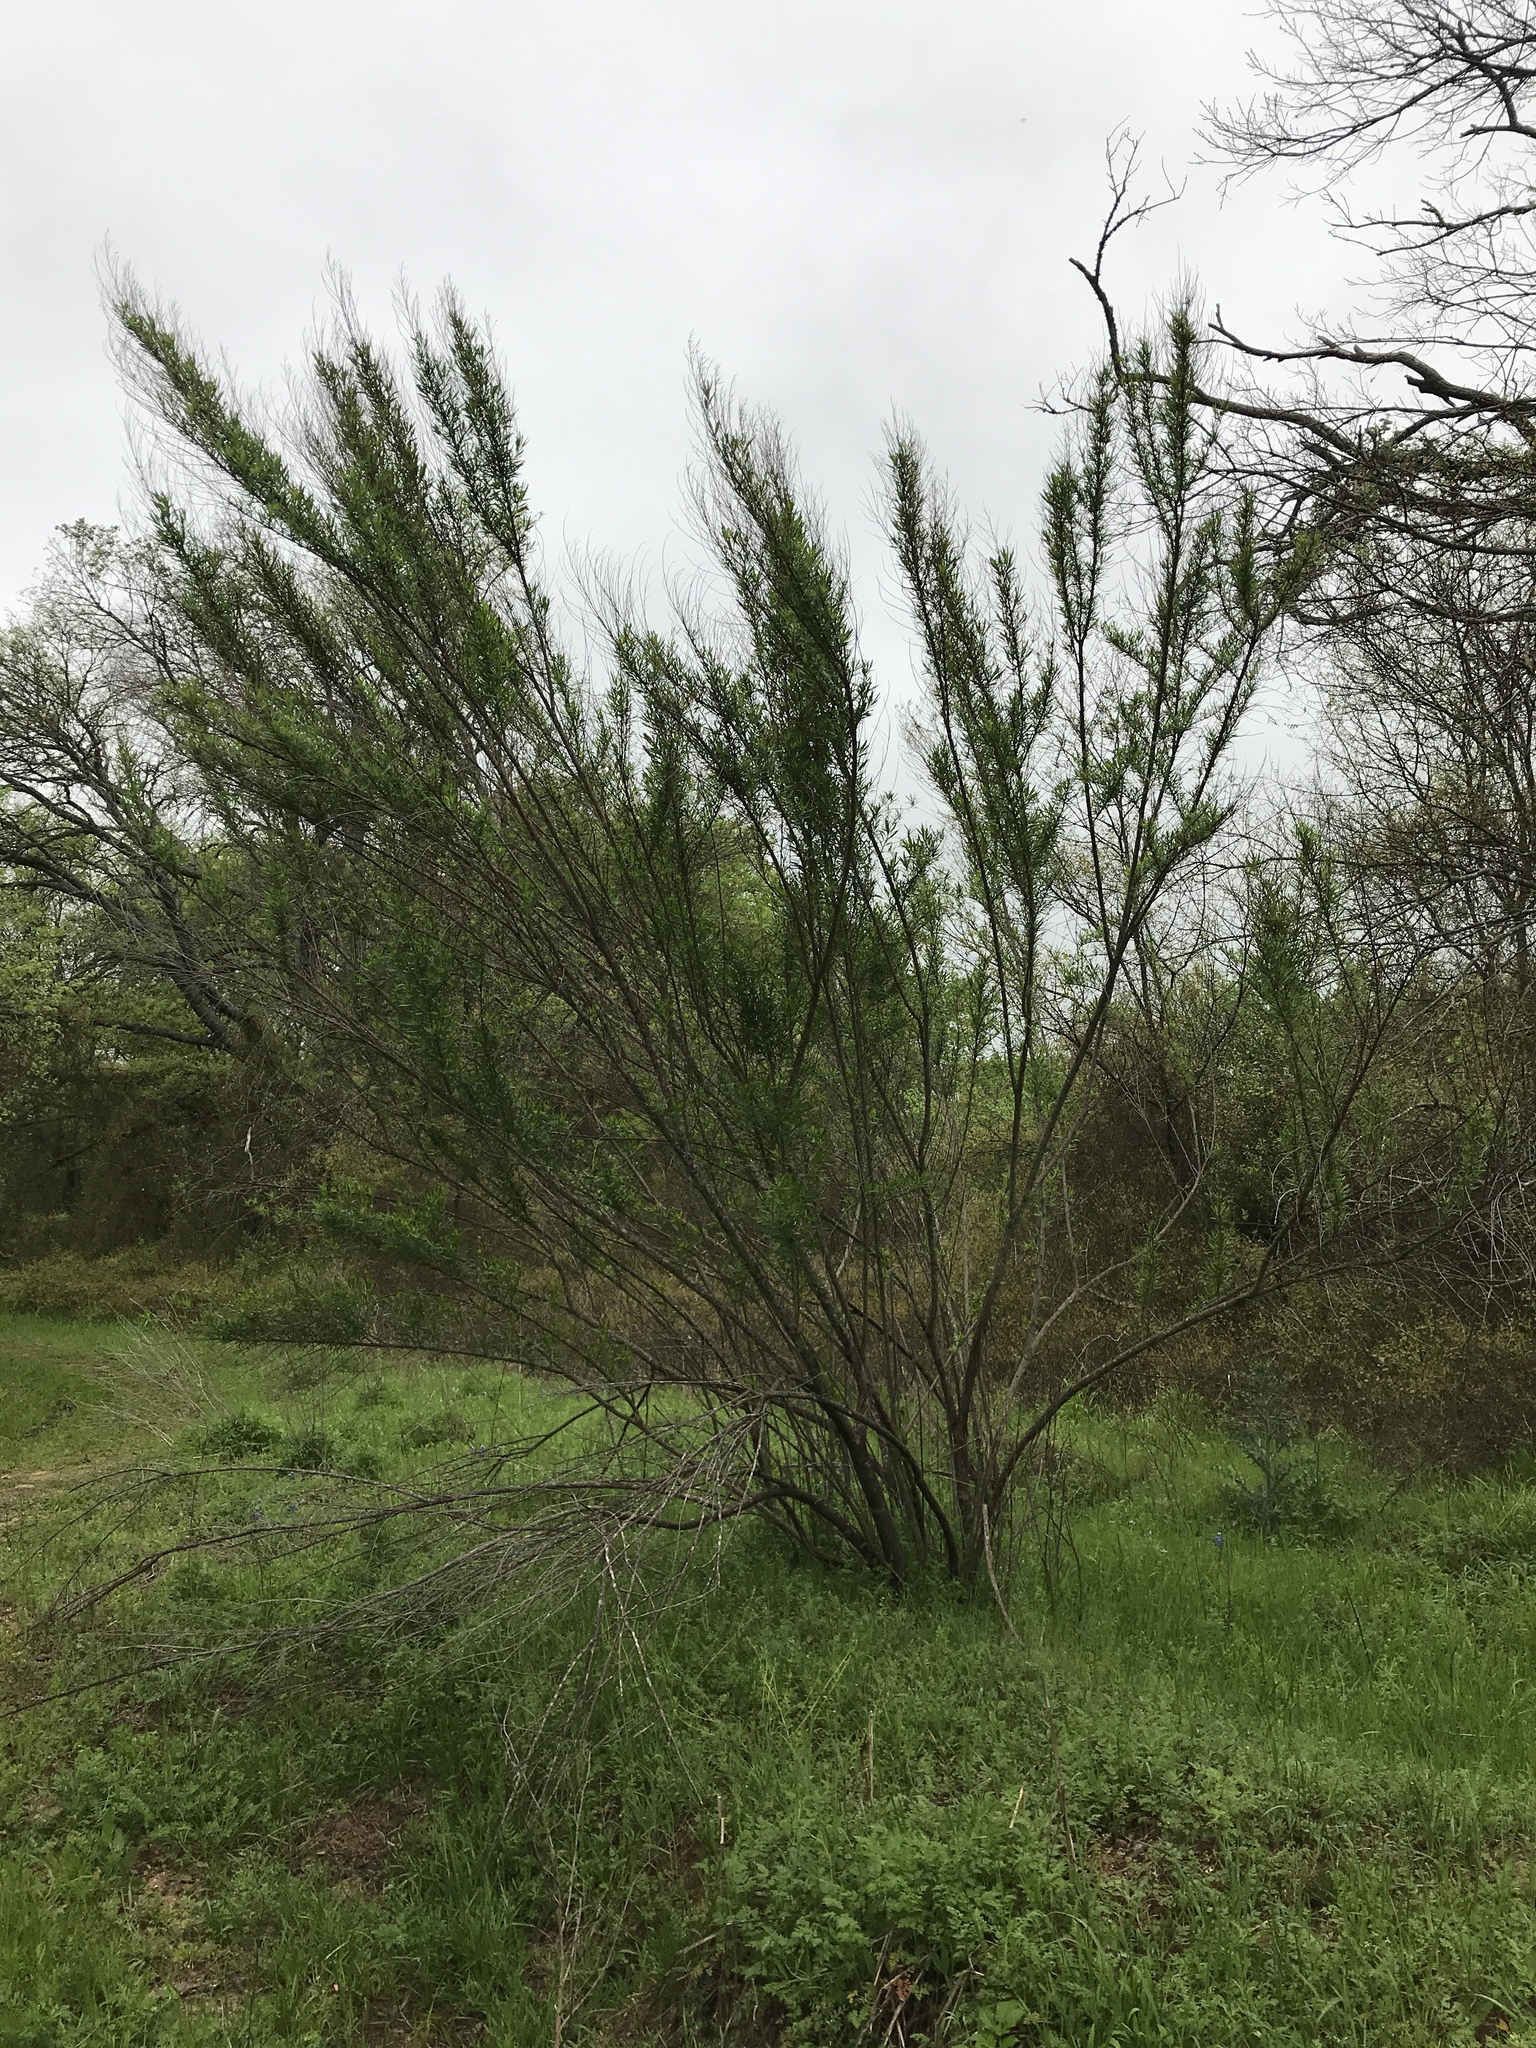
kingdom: Plantae
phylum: Tracheophyta
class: Magnoliopsida
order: Asterales
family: Asteraceae
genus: Baccharis
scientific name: Baccharis neglecta
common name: Roosevelt-weed
